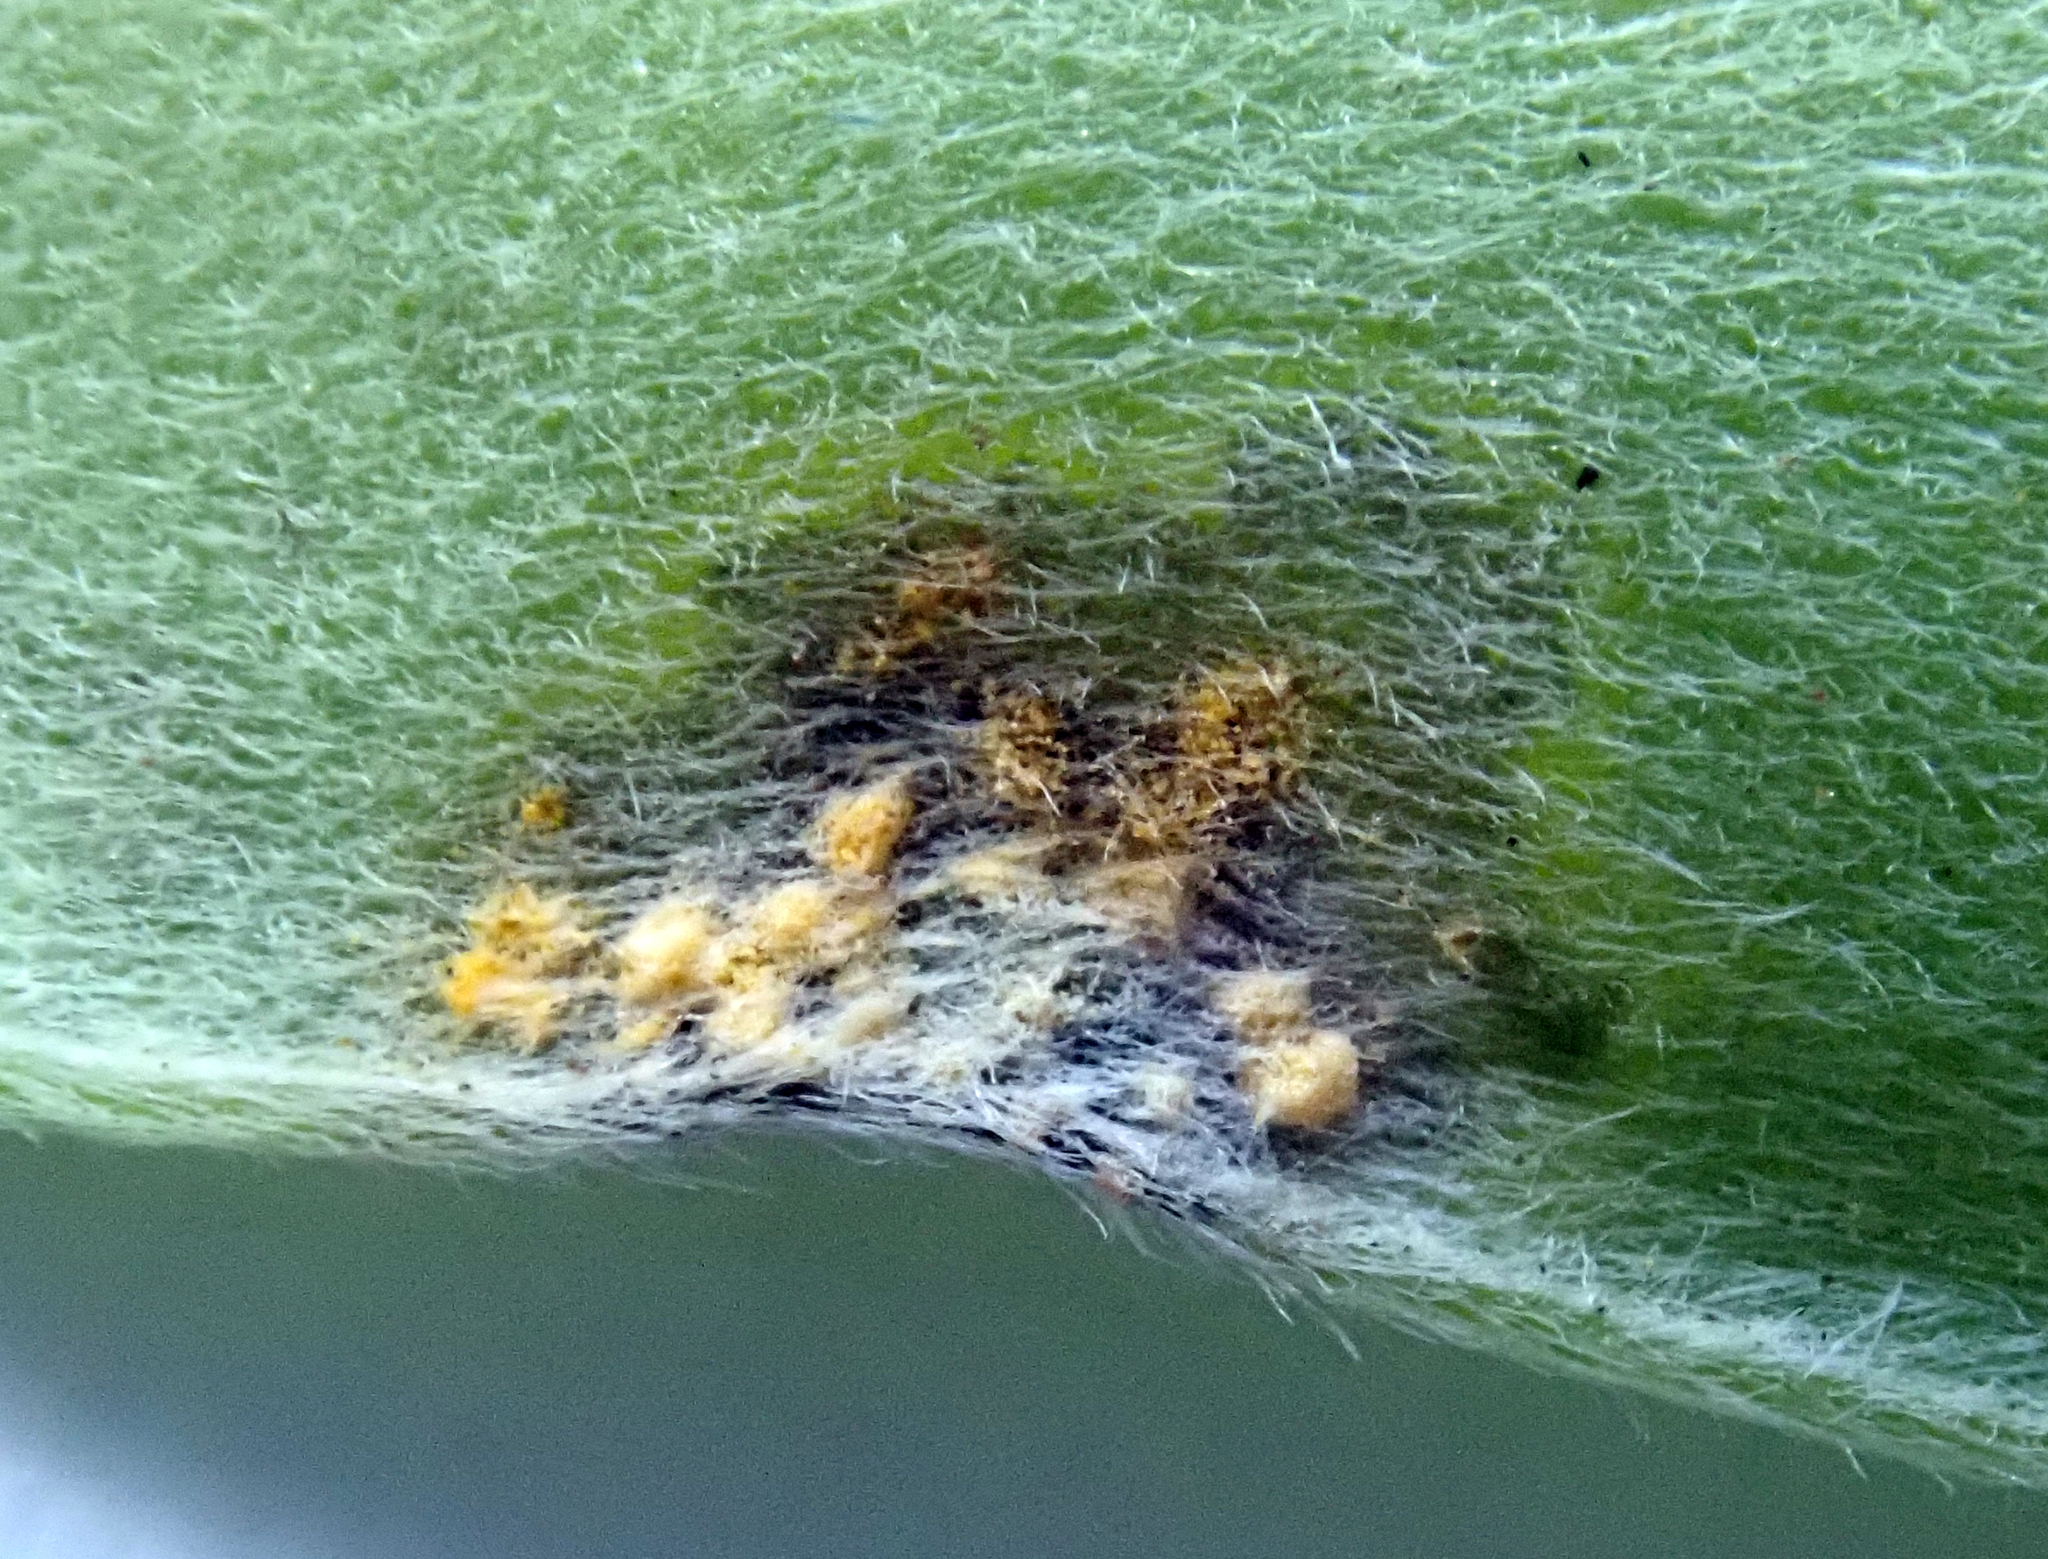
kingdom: Fungi
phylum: Basidiomycota
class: Pucciniomycetes
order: Pucciniales
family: Sphaerophragmiaceae
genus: Austropuccinia
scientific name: Austropuccinia psidii
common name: Myrtle rust
